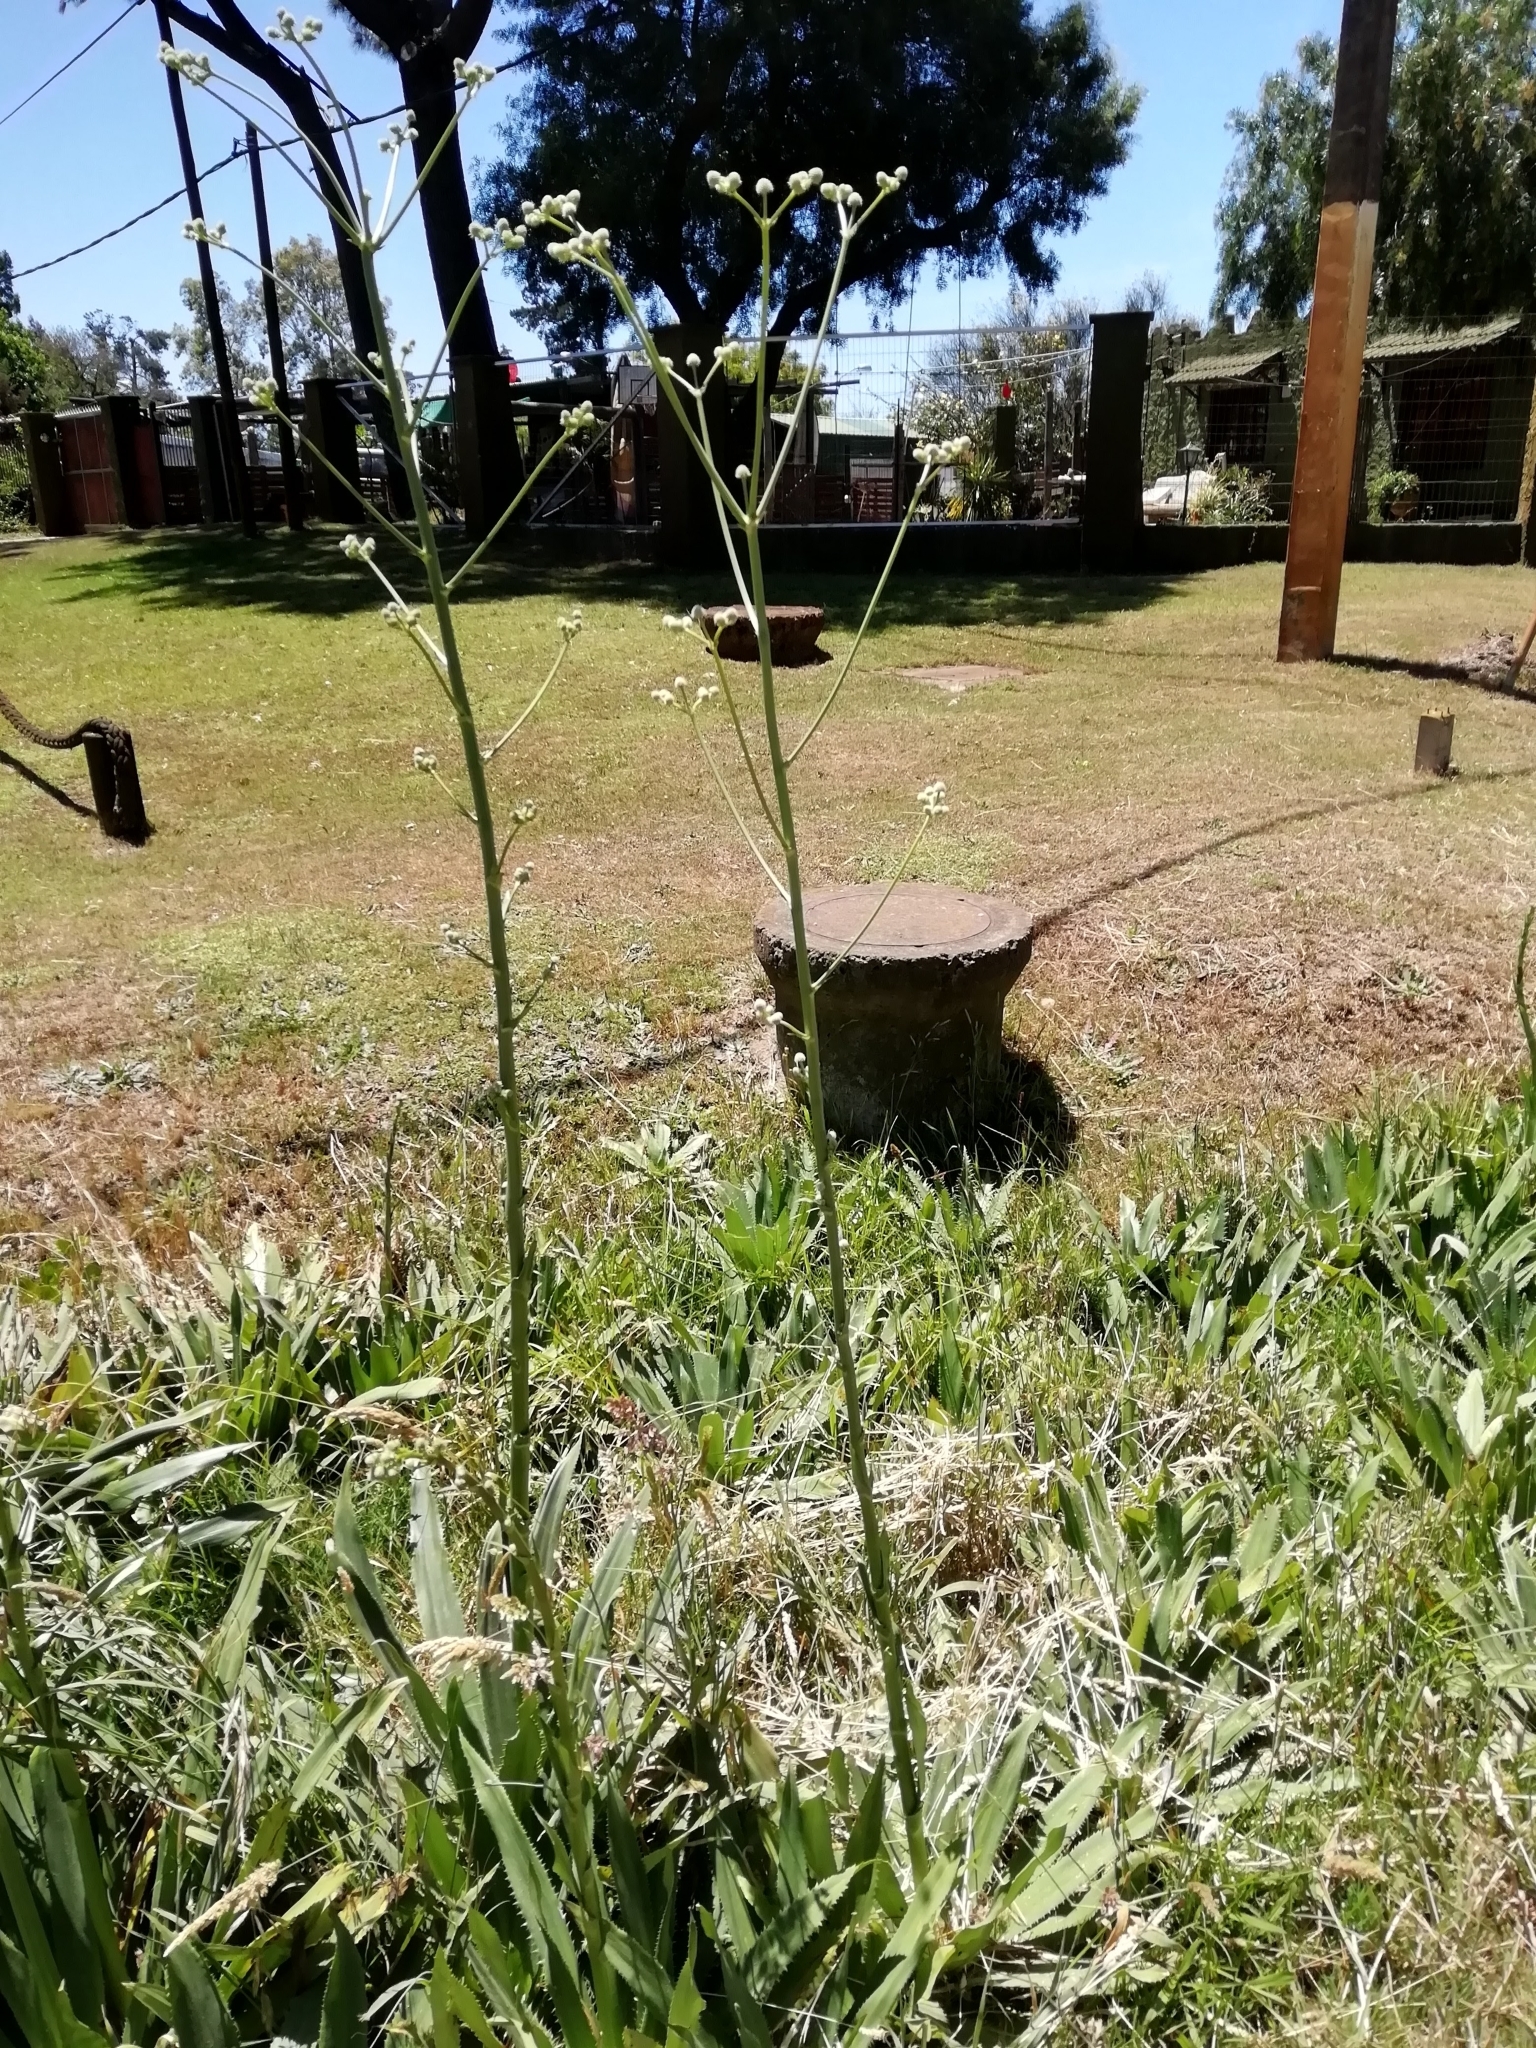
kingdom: Plantae
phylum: Tracheophyta
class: Magnoliopsida
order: Apiales
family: Apiaceae
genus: Eryngium
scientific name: Eryngium elegans
